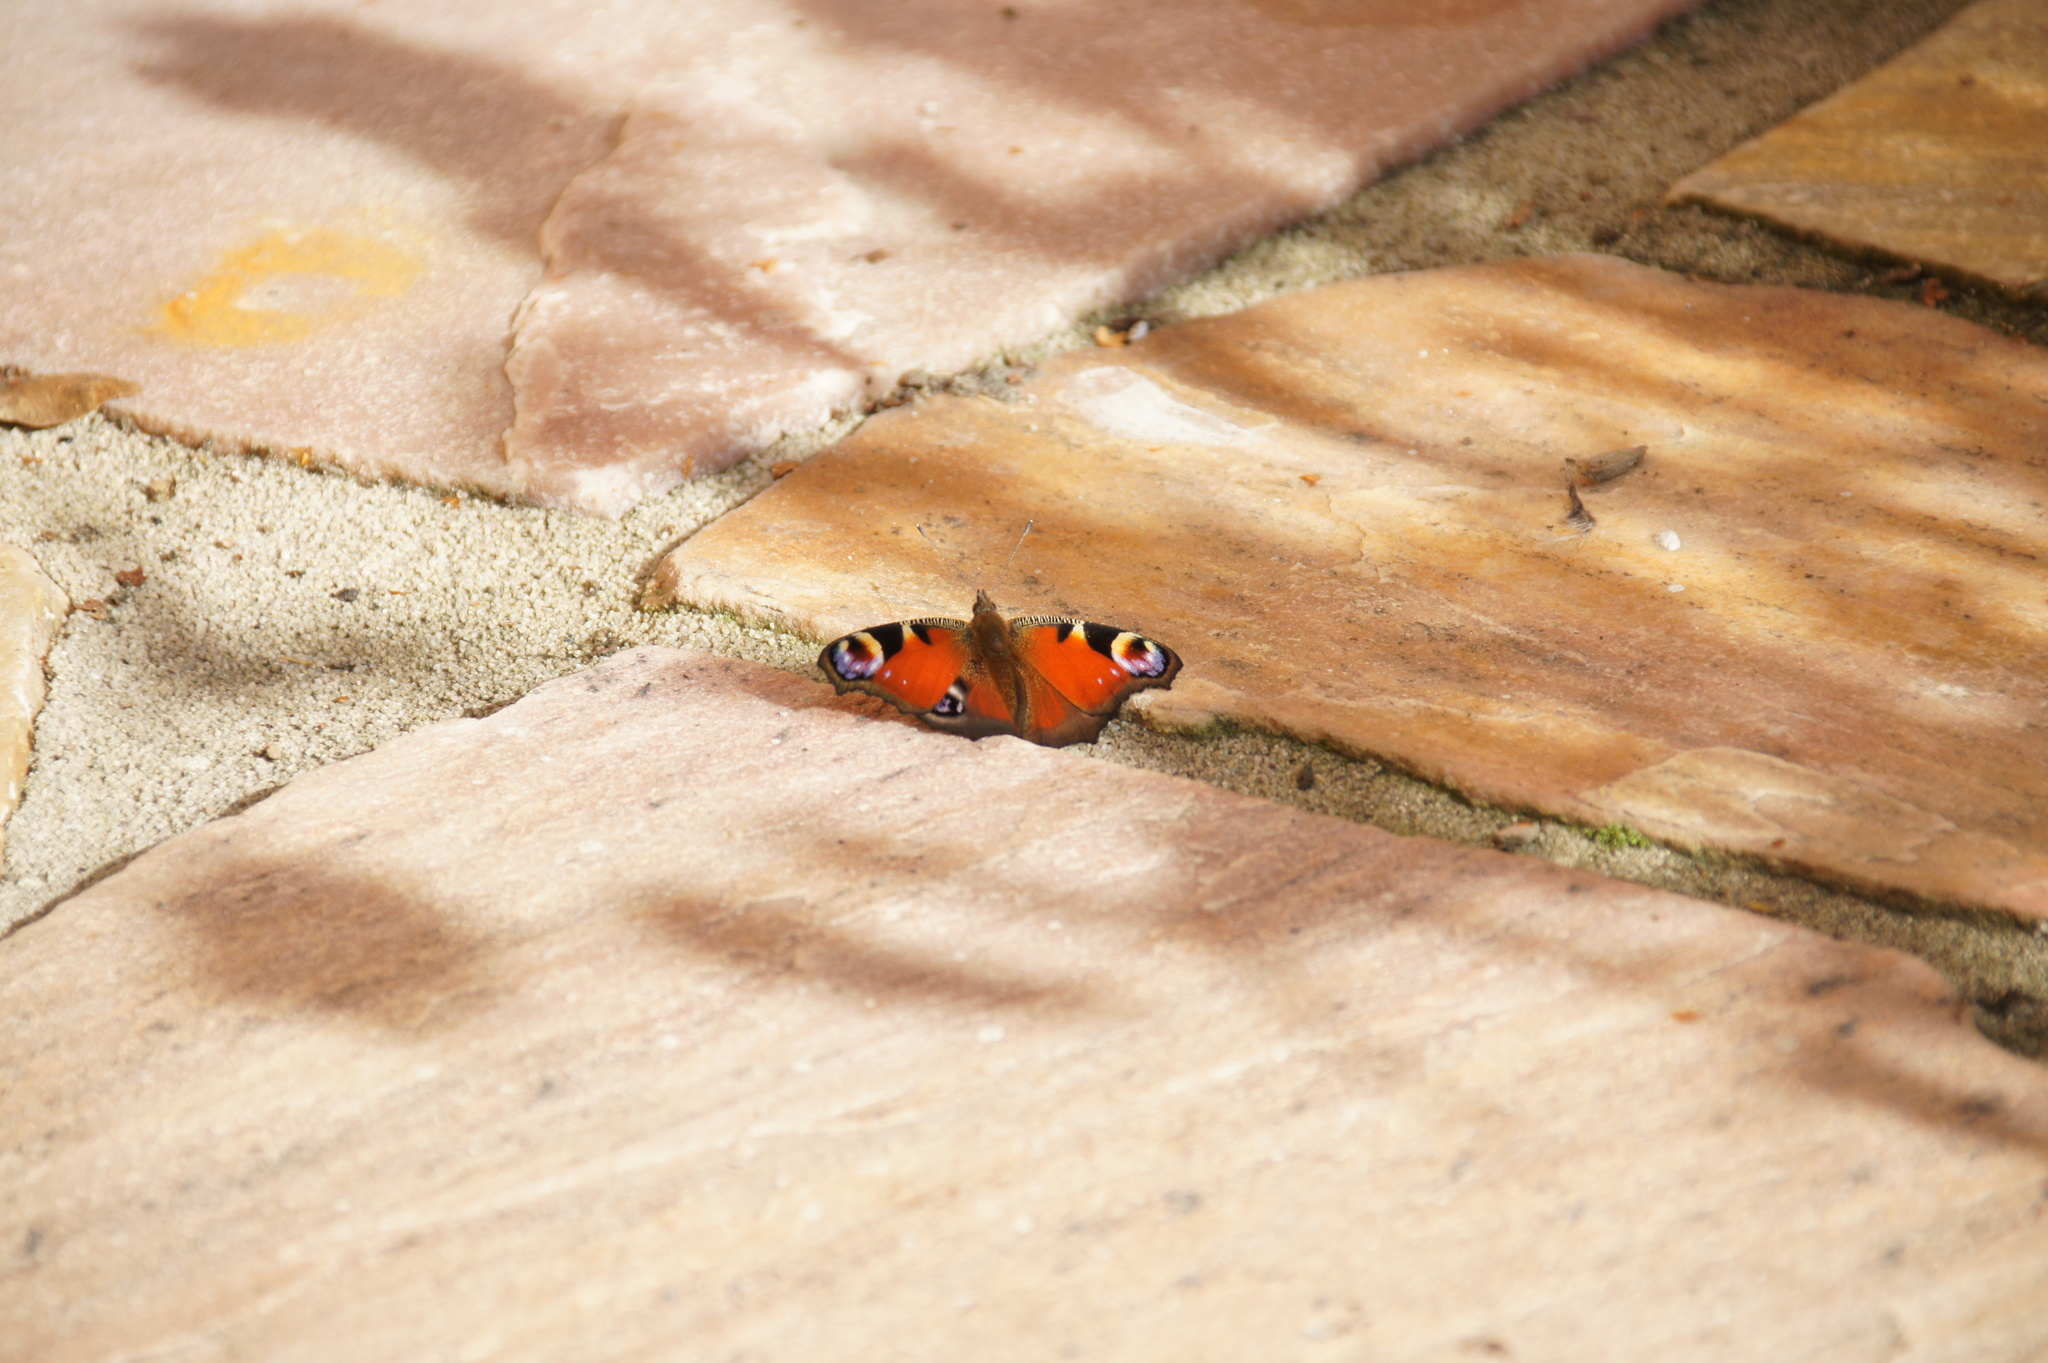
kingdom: Animalia
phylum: Arthropoda
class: Insecta
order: Lepidoptera
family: Nymphalidae
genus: Aglais
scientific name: Aglais io
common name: Peacock
